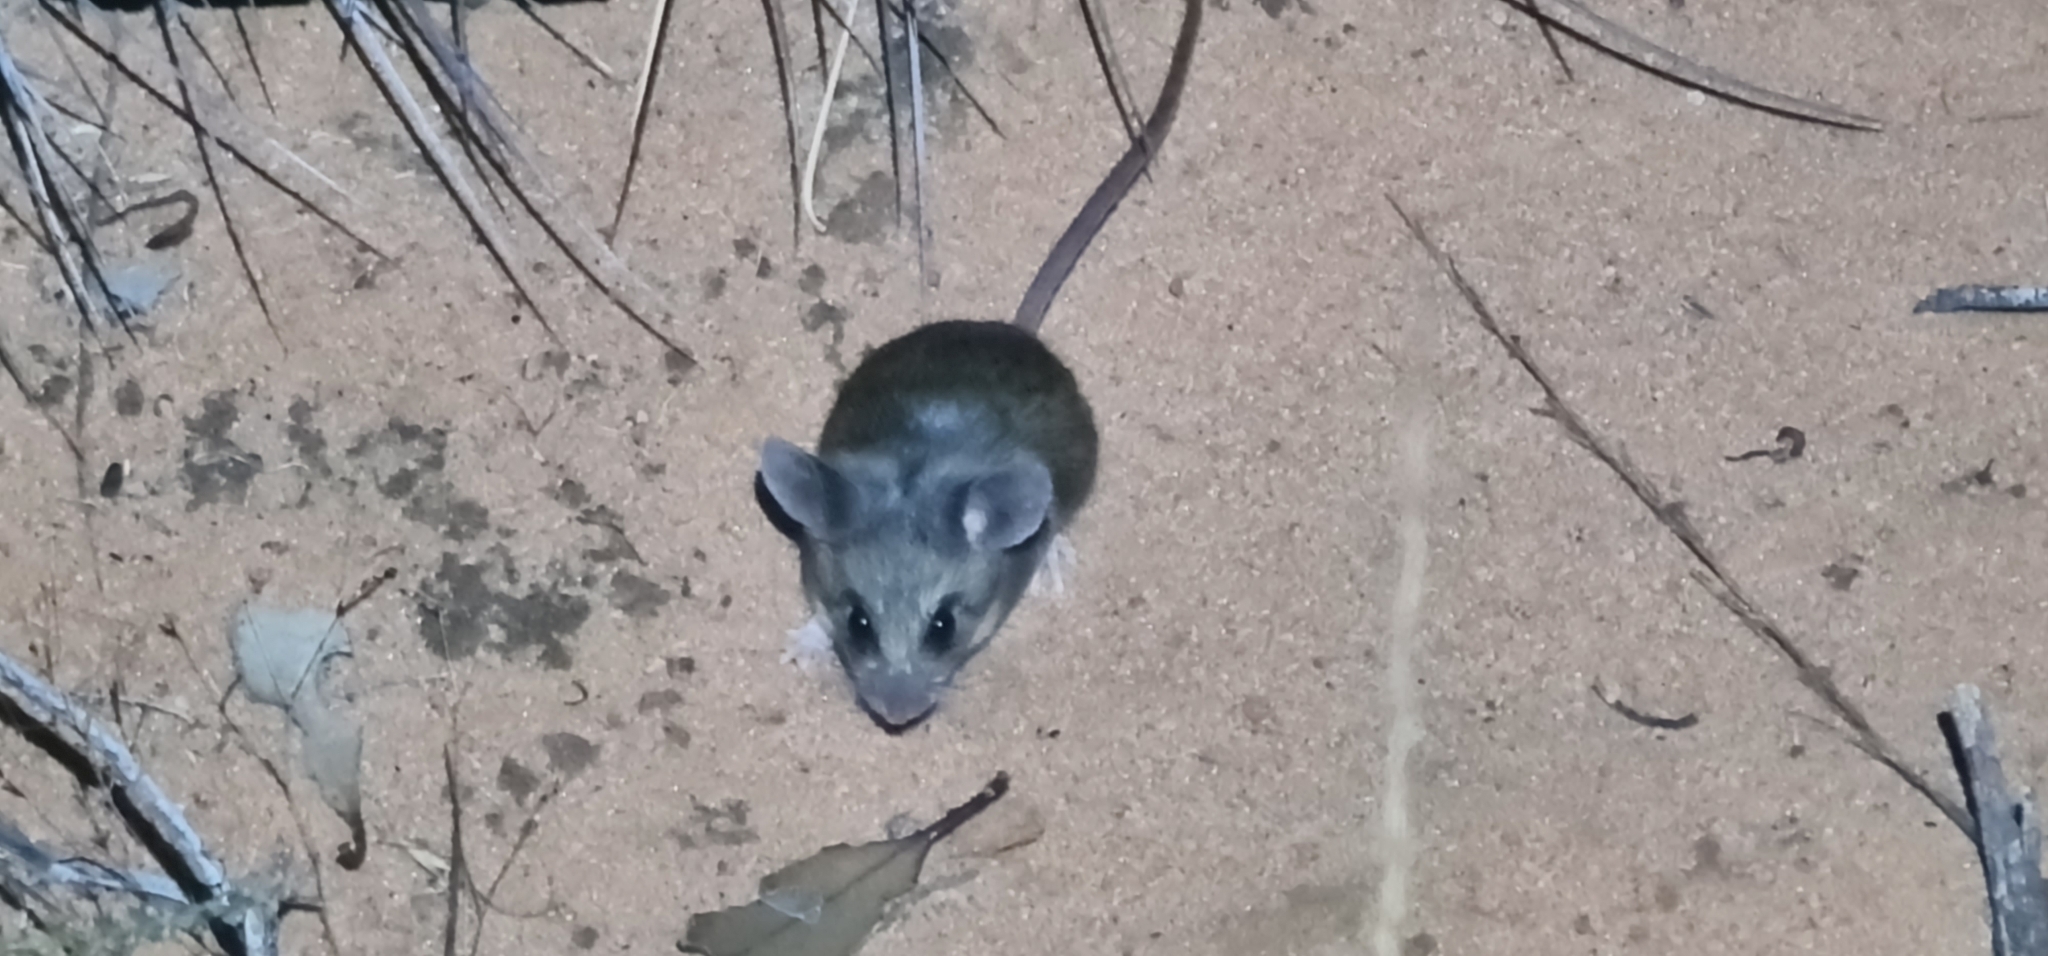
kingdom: Animalia
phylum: Chordata
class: Mammalia
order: Rodentia
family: Muridae
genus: Pseudomys
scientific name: Pseudomys bolami
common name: Bolam's pseudomys
